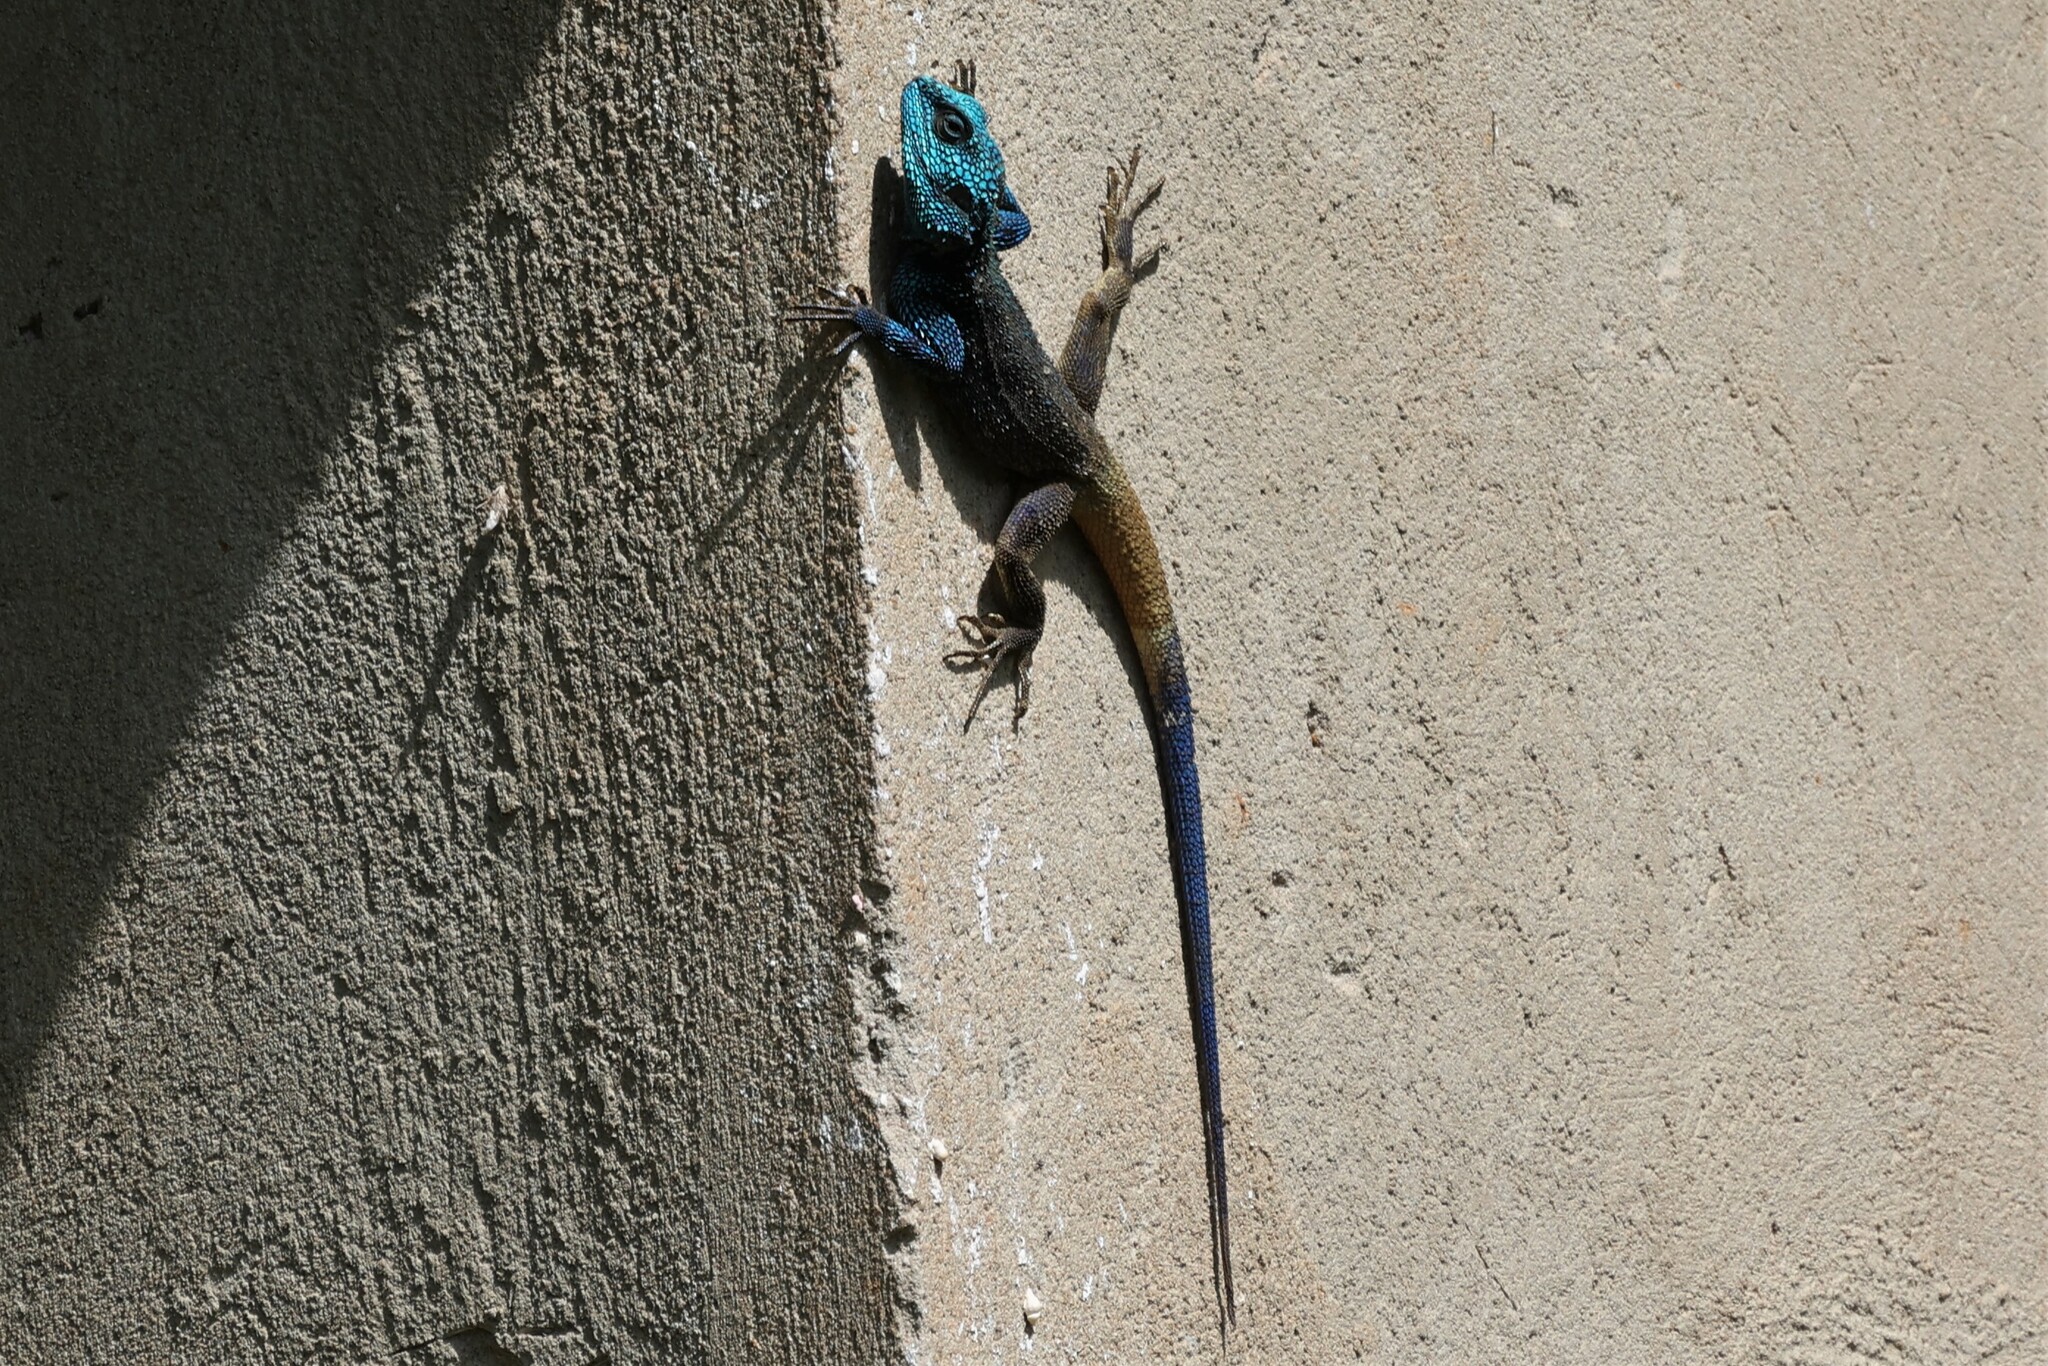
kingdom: Animalia
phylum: Chordata
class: Squamata
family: Agamidae
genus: Acanthocercus
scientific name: Acanthocercus ugandaensis
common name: Uganda blue-headed tree agama
